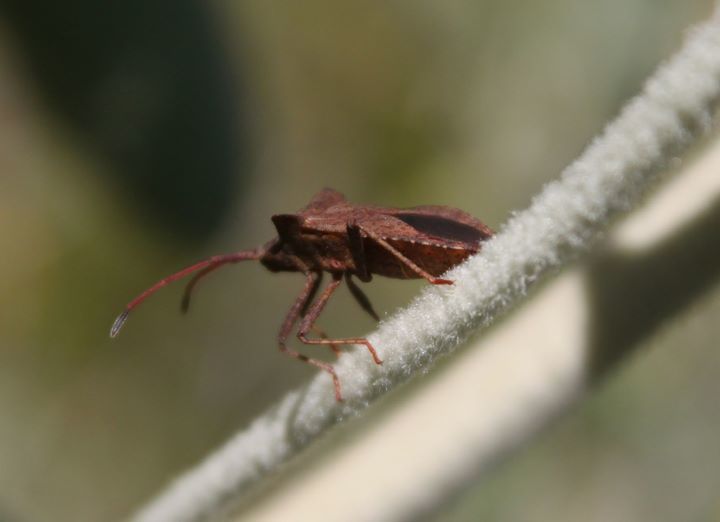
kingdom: Animalia
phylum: Arthropoda
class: Insecta
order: Hemiptera
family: Coreidae
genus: Coreus
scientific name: Coreus marginatus
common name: Dock bug
